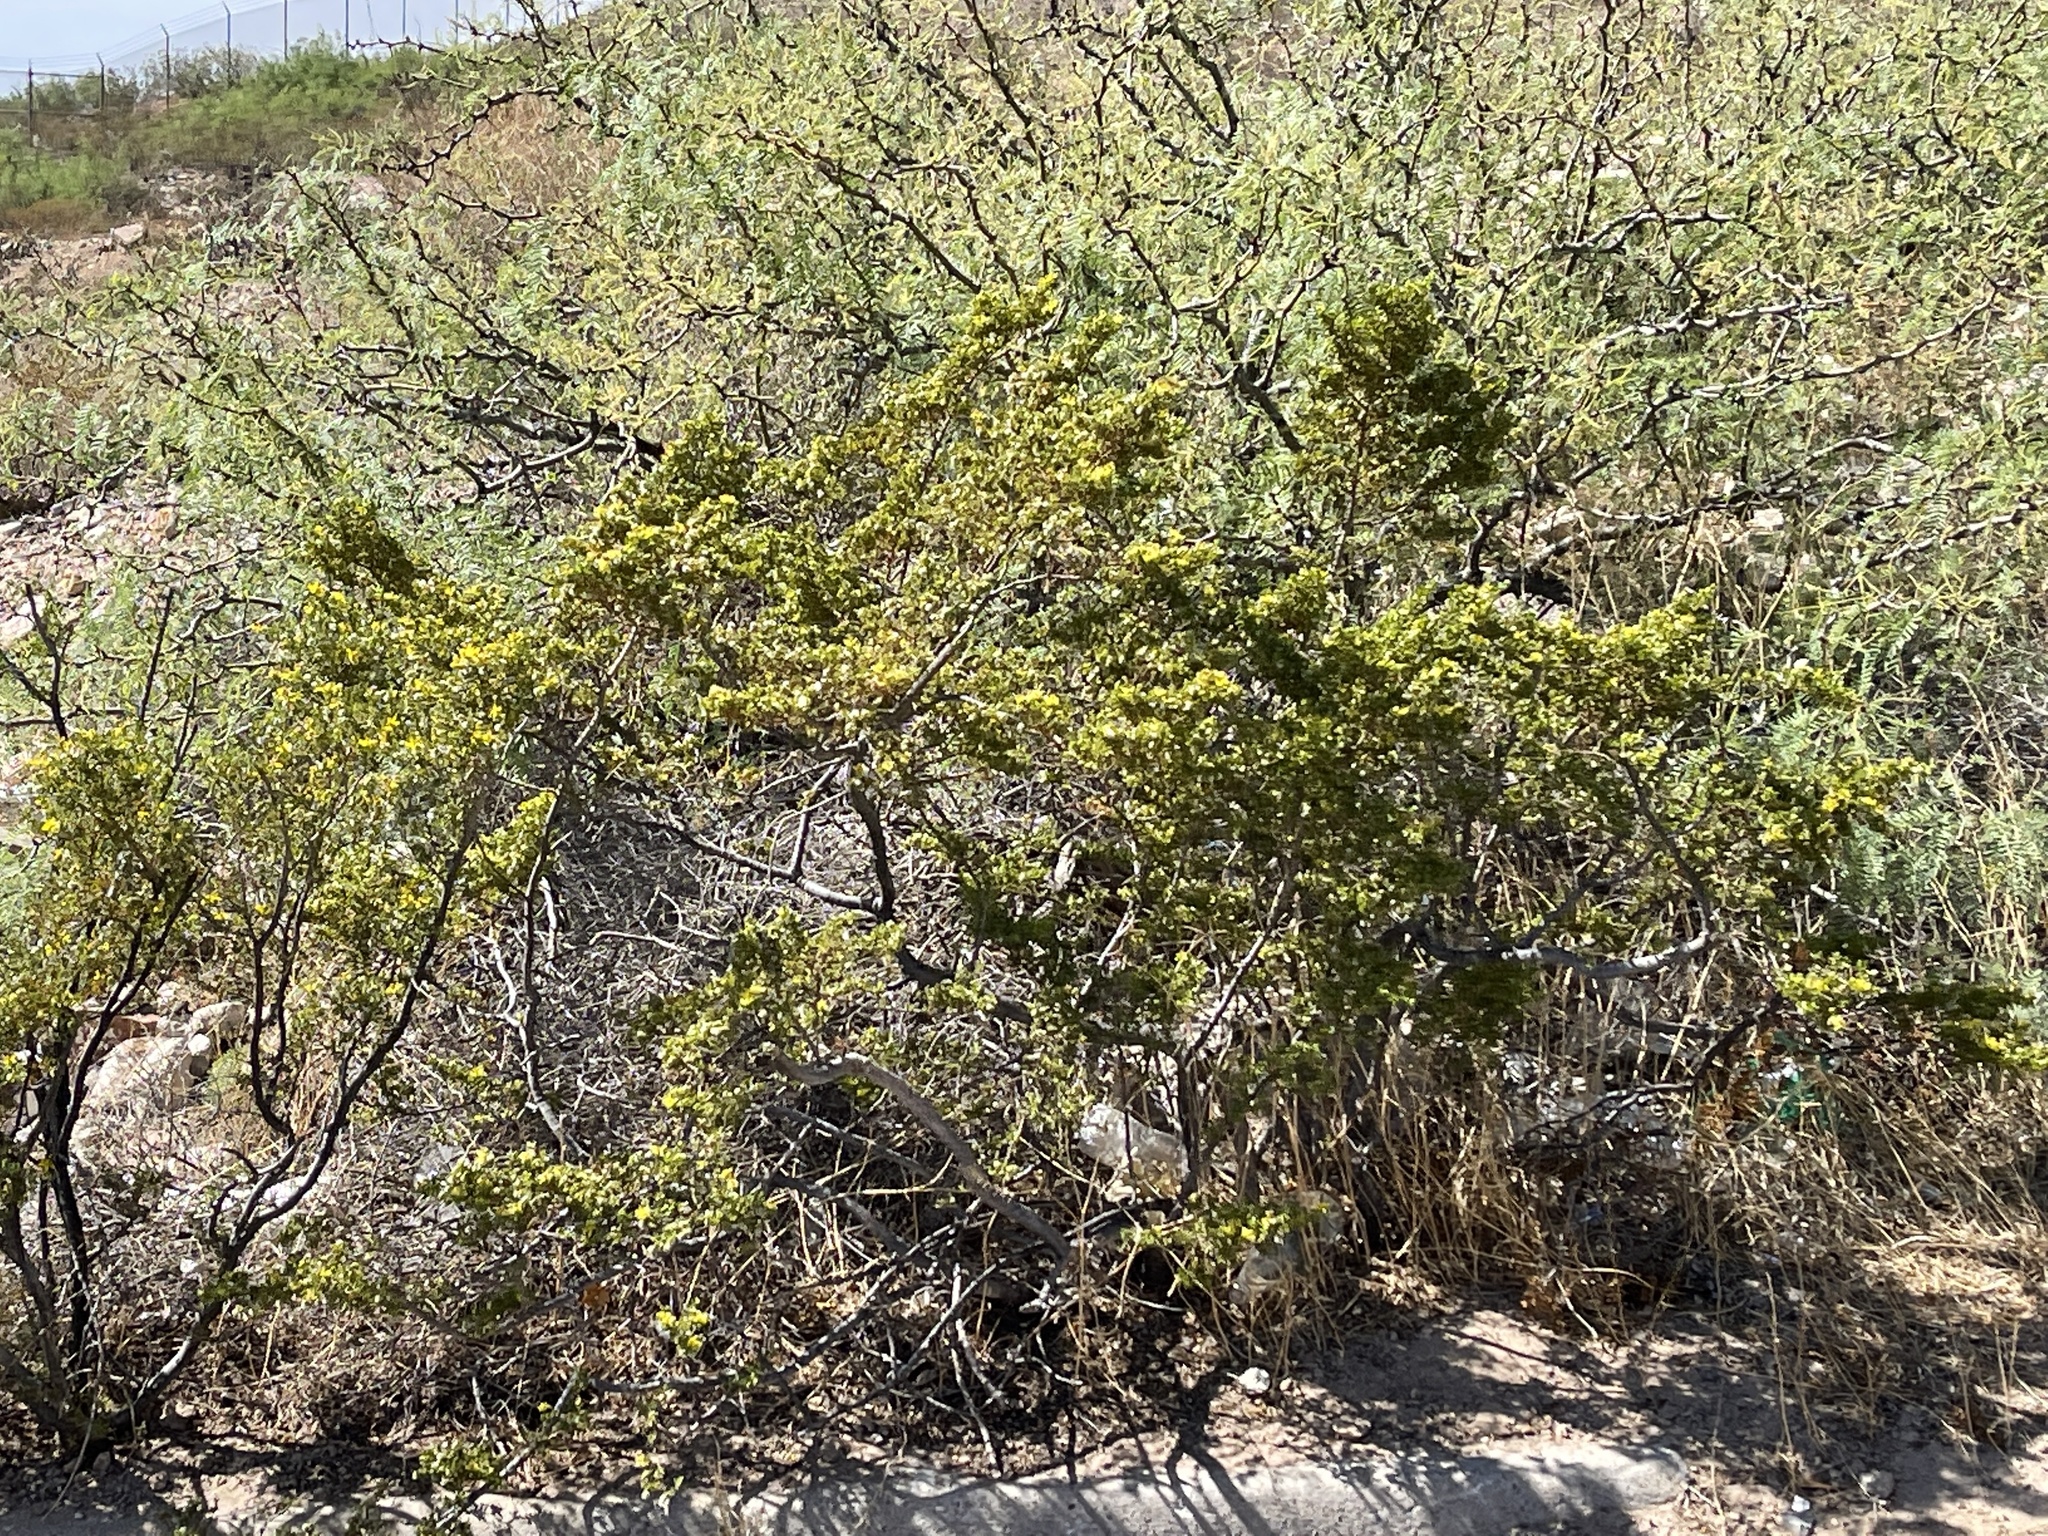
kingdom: Plantae
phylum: Tracheophyta
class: Magnoliopsida
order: Zygophyllales
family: Zygophyllaceae
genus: Larrea
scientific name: Larrea tridentata
